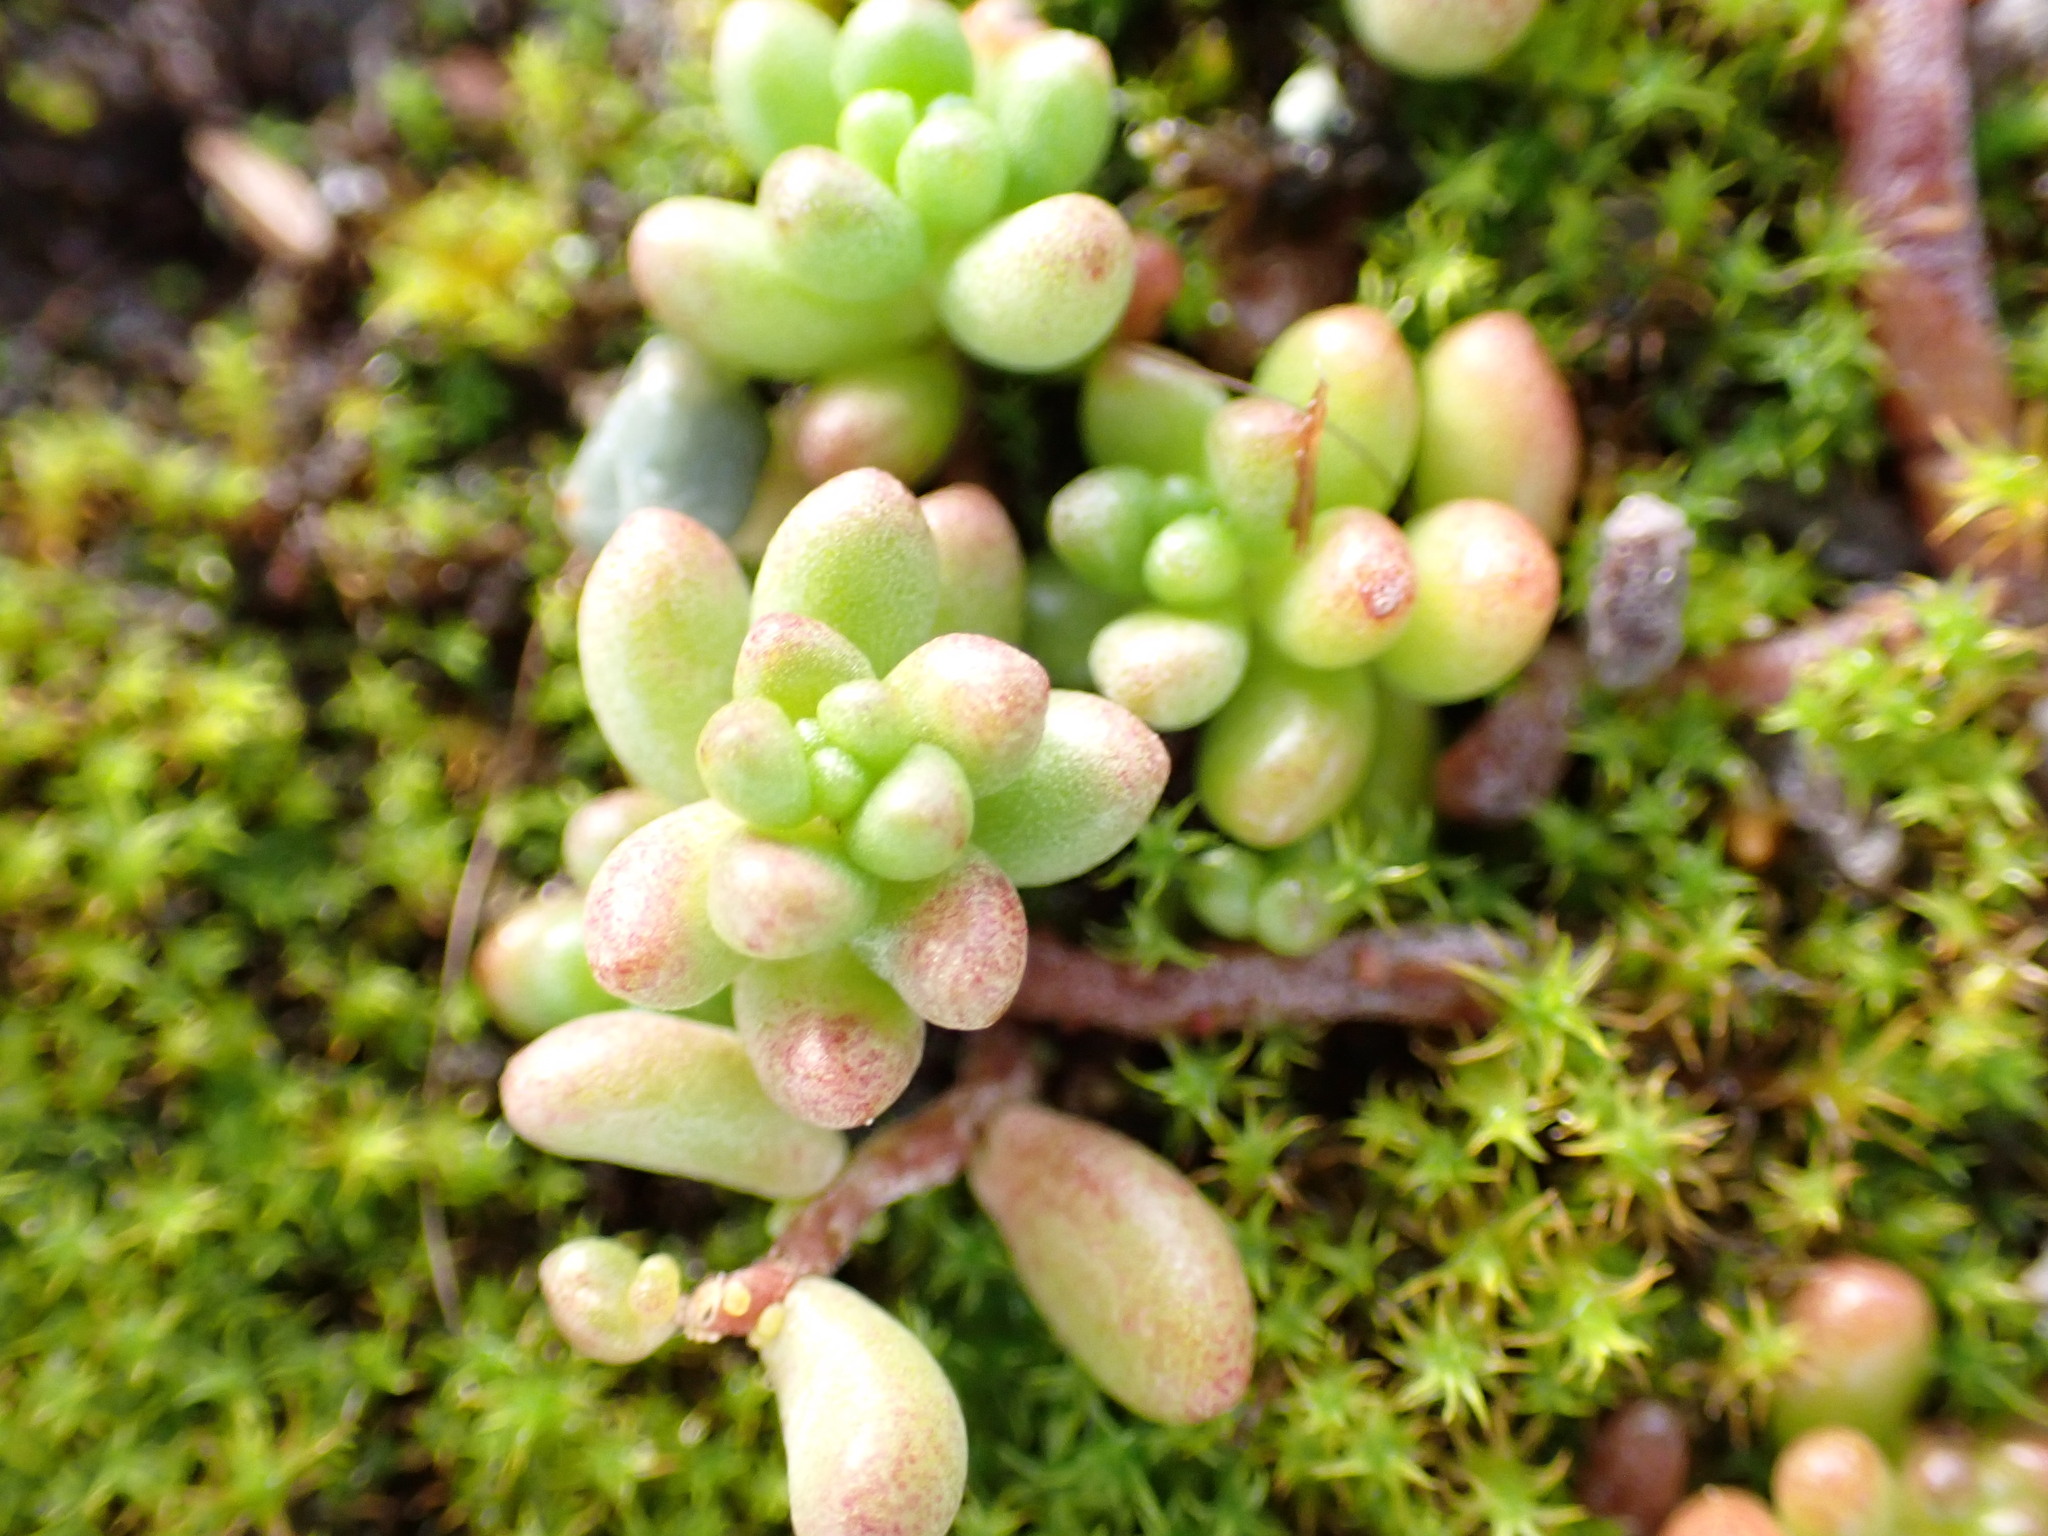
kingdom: Plantae
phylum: Tracheophyta
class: Magnoliopsida
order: Saxifragales
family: Crassulaceae
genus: Sedum
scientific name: Sedum album
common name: White stonecrop
